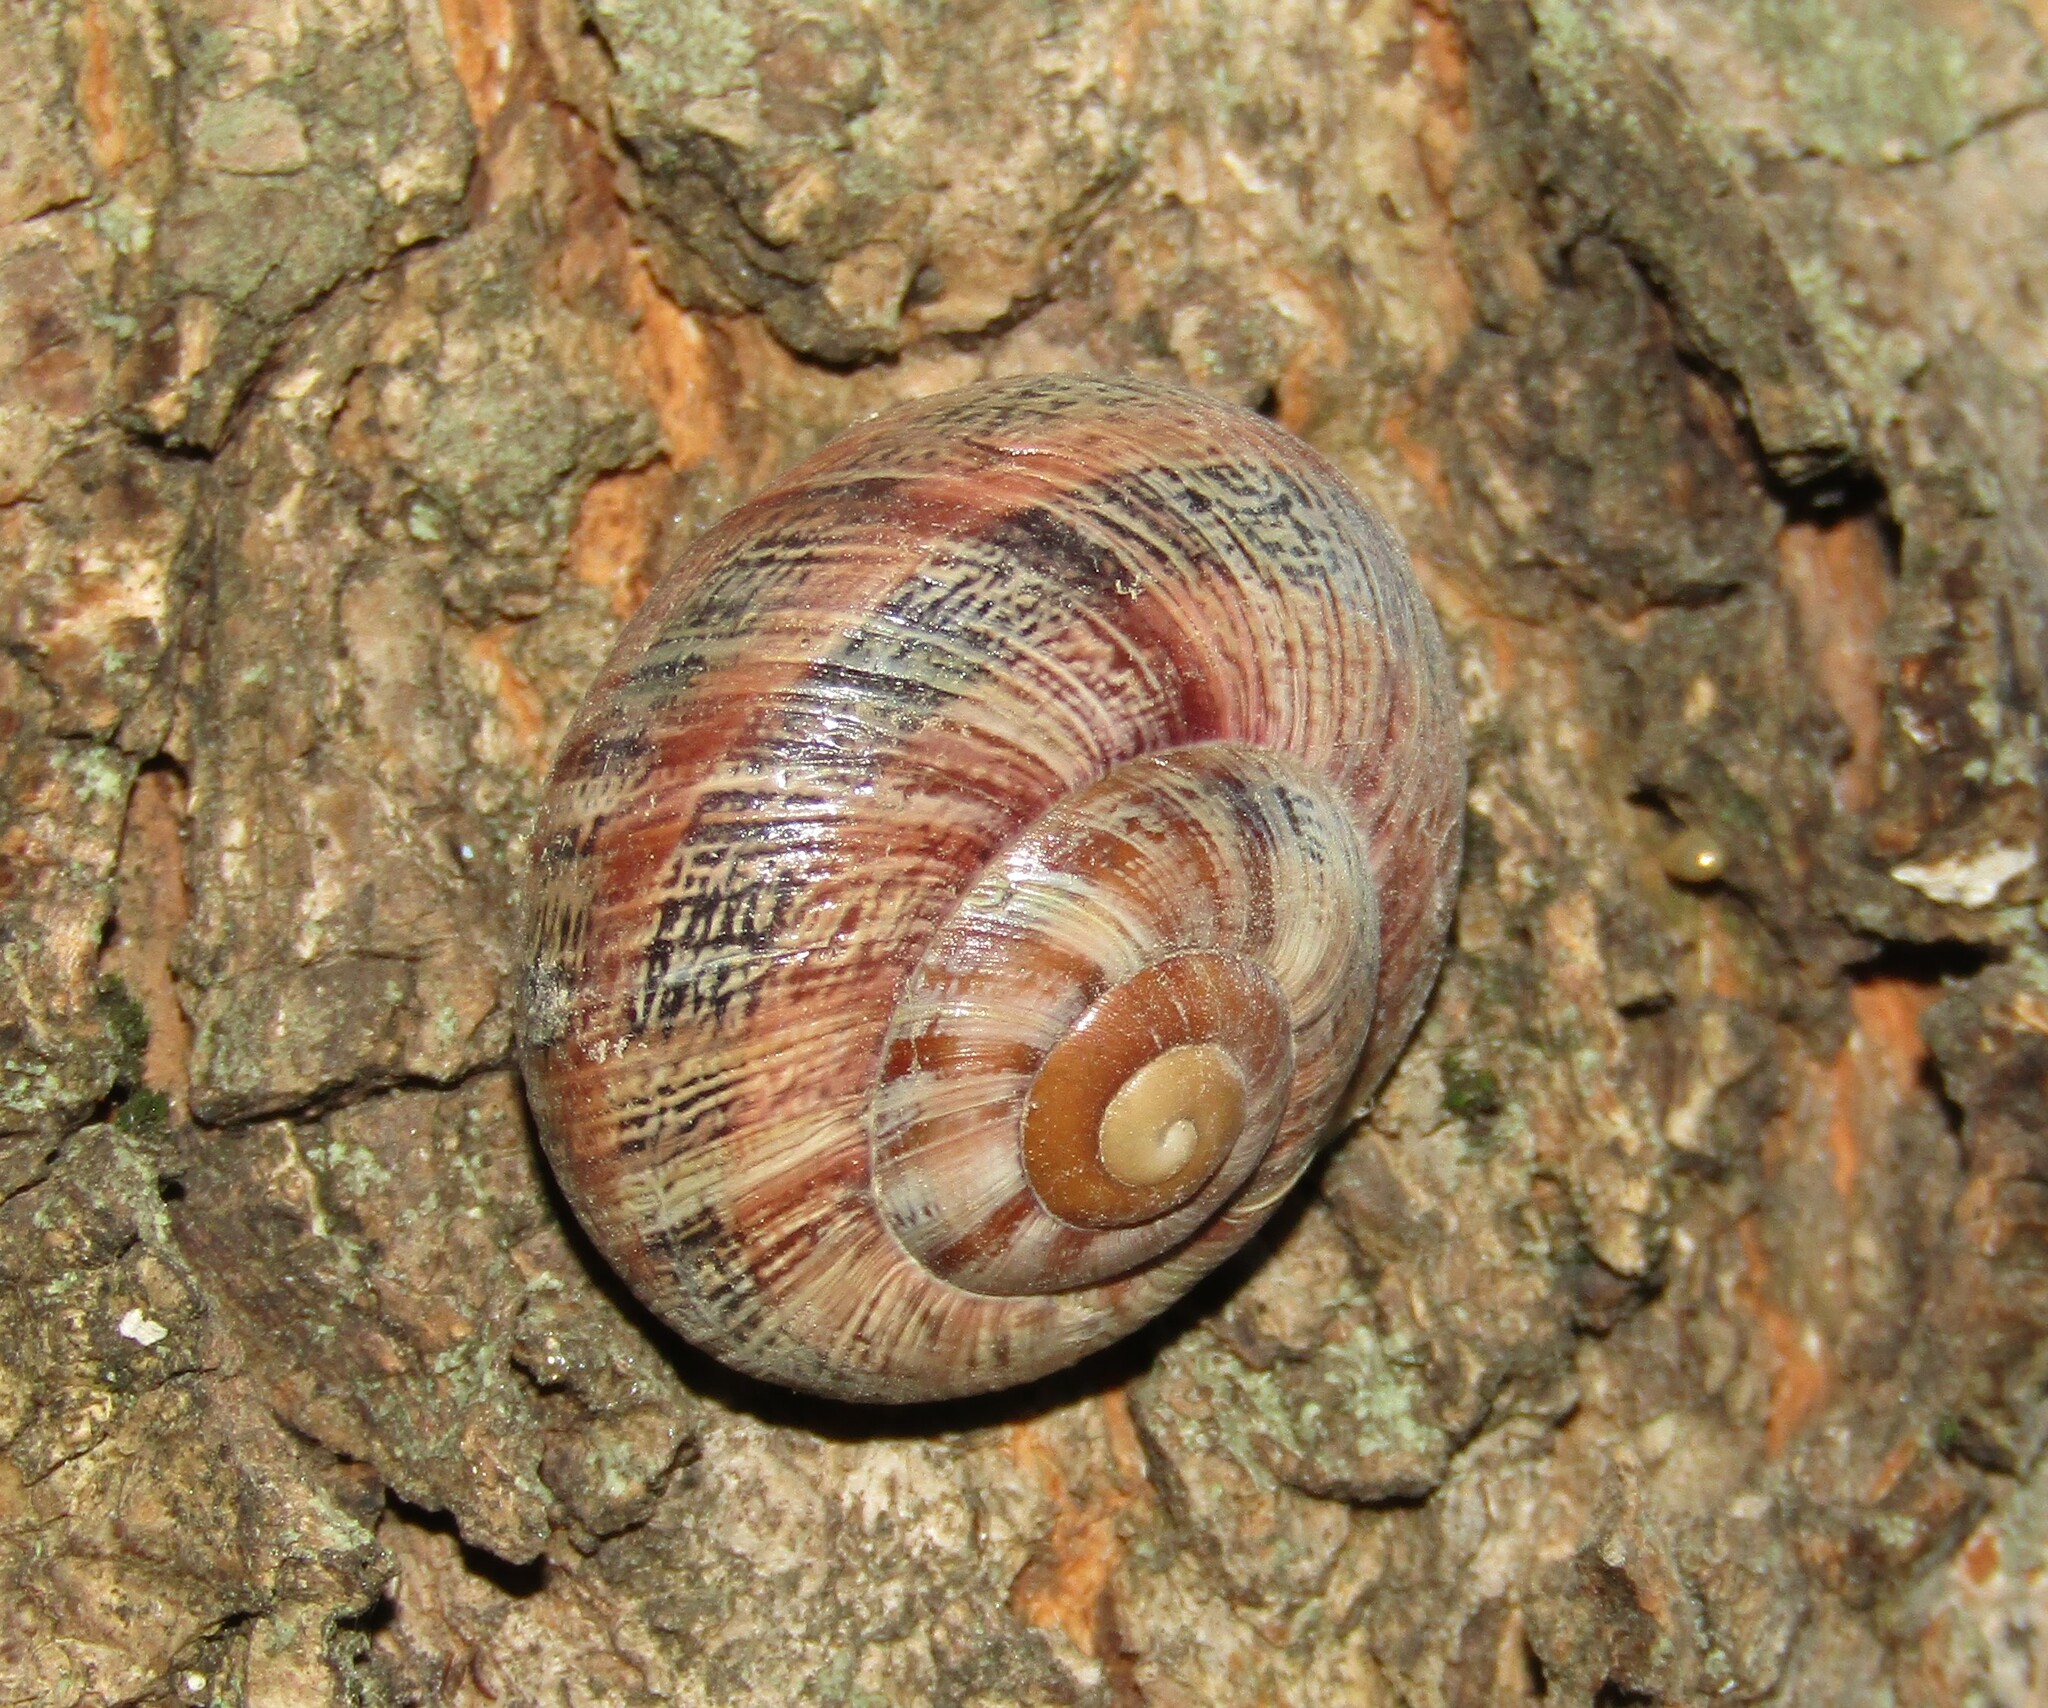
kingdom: Animalia
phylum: Mollusca
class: Gastropoda
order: Stylommatophora
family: Helicidae
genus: Caucasotachea
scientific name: Caucasotachea atrolabiata
